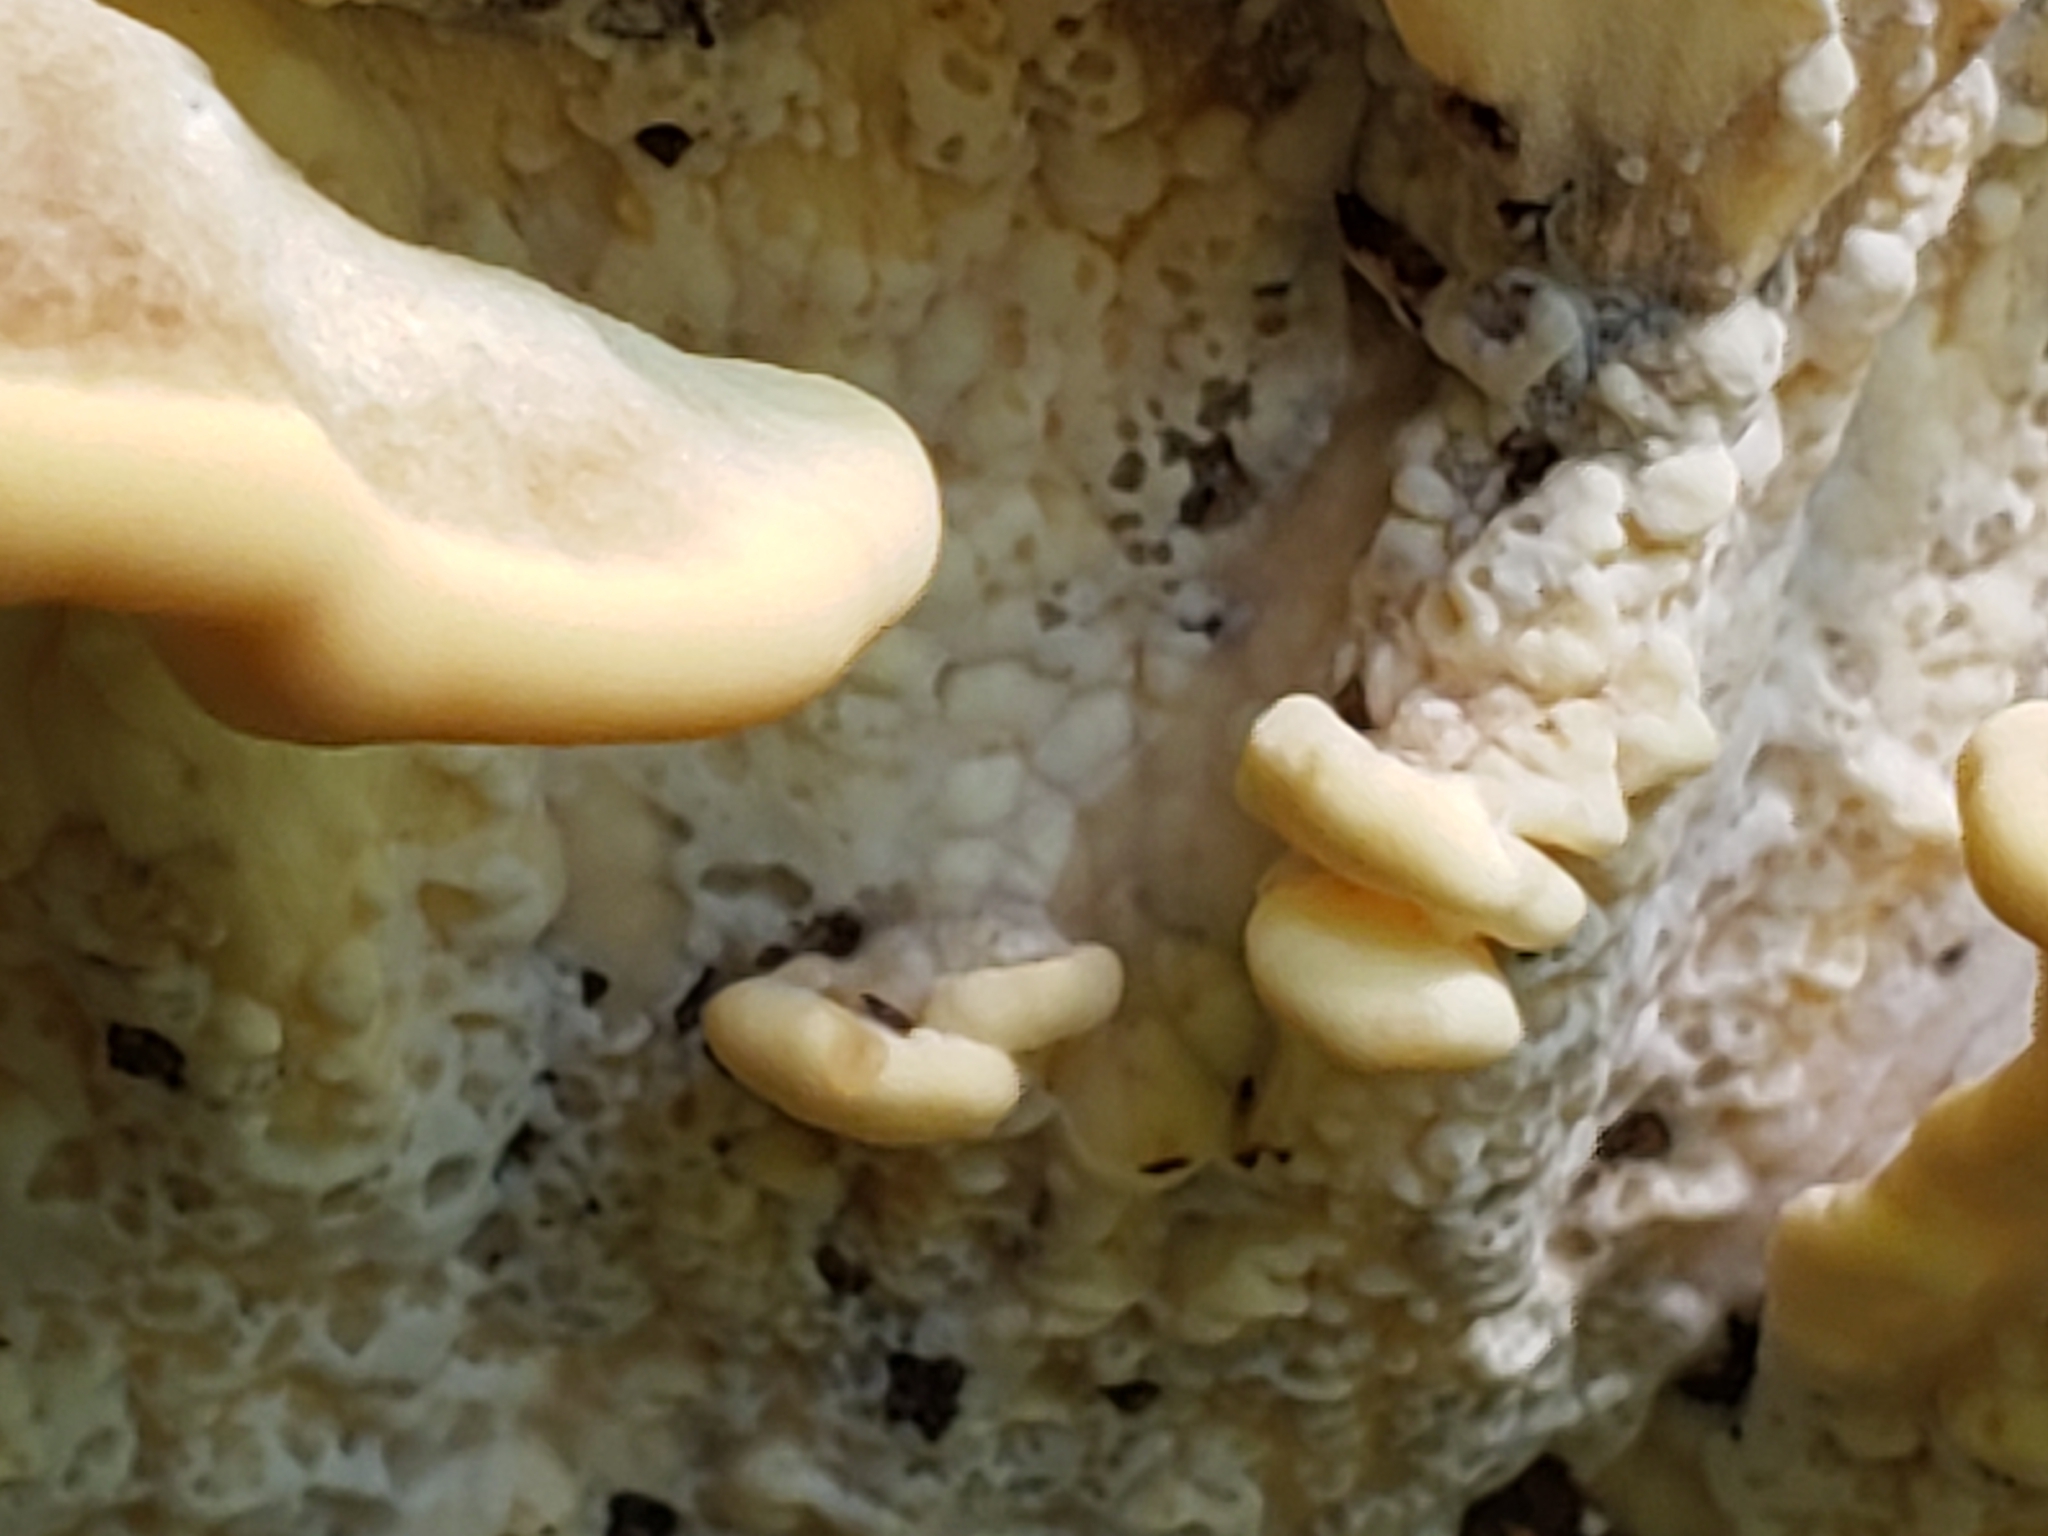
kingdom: Fungi
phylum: Basidiomycota
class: Agaricomycetes
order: Polyporales
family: Meripilaceae
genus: Meripilus
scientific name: Meripilus sumstinei
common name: Black-staining polypore
